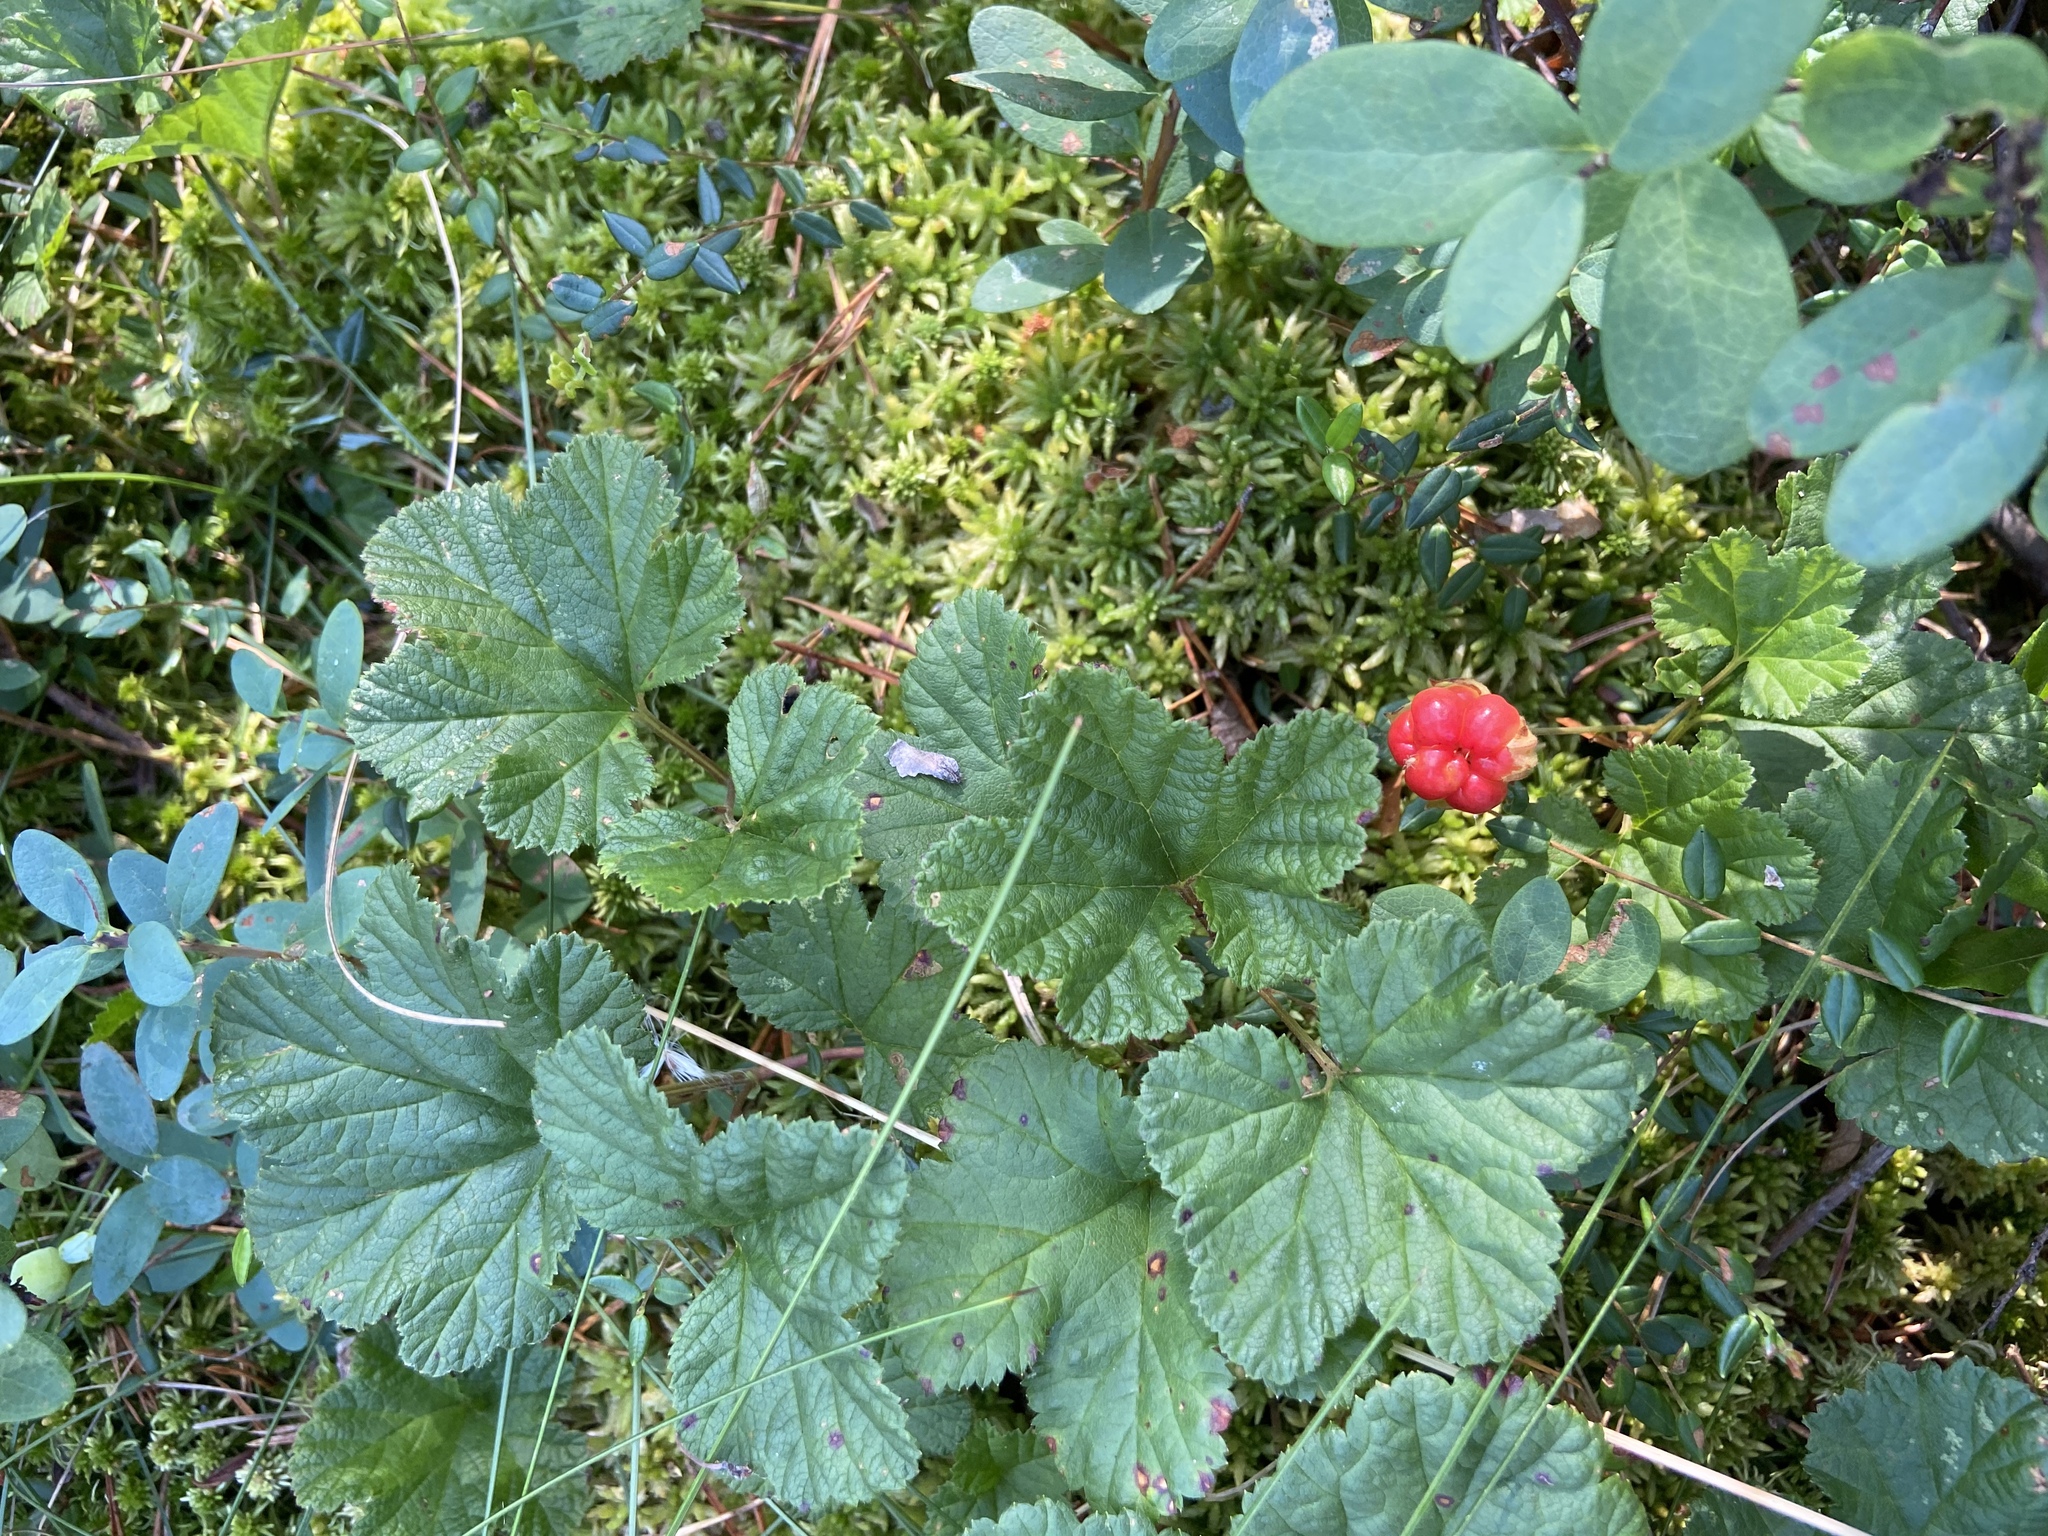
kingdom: Plantae
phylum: Tracheophyta
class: Magnoliopsida
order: Rosales
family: Rosaceae
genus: Rubus
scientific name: Rubus chamaemorus
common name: Cloudberry
